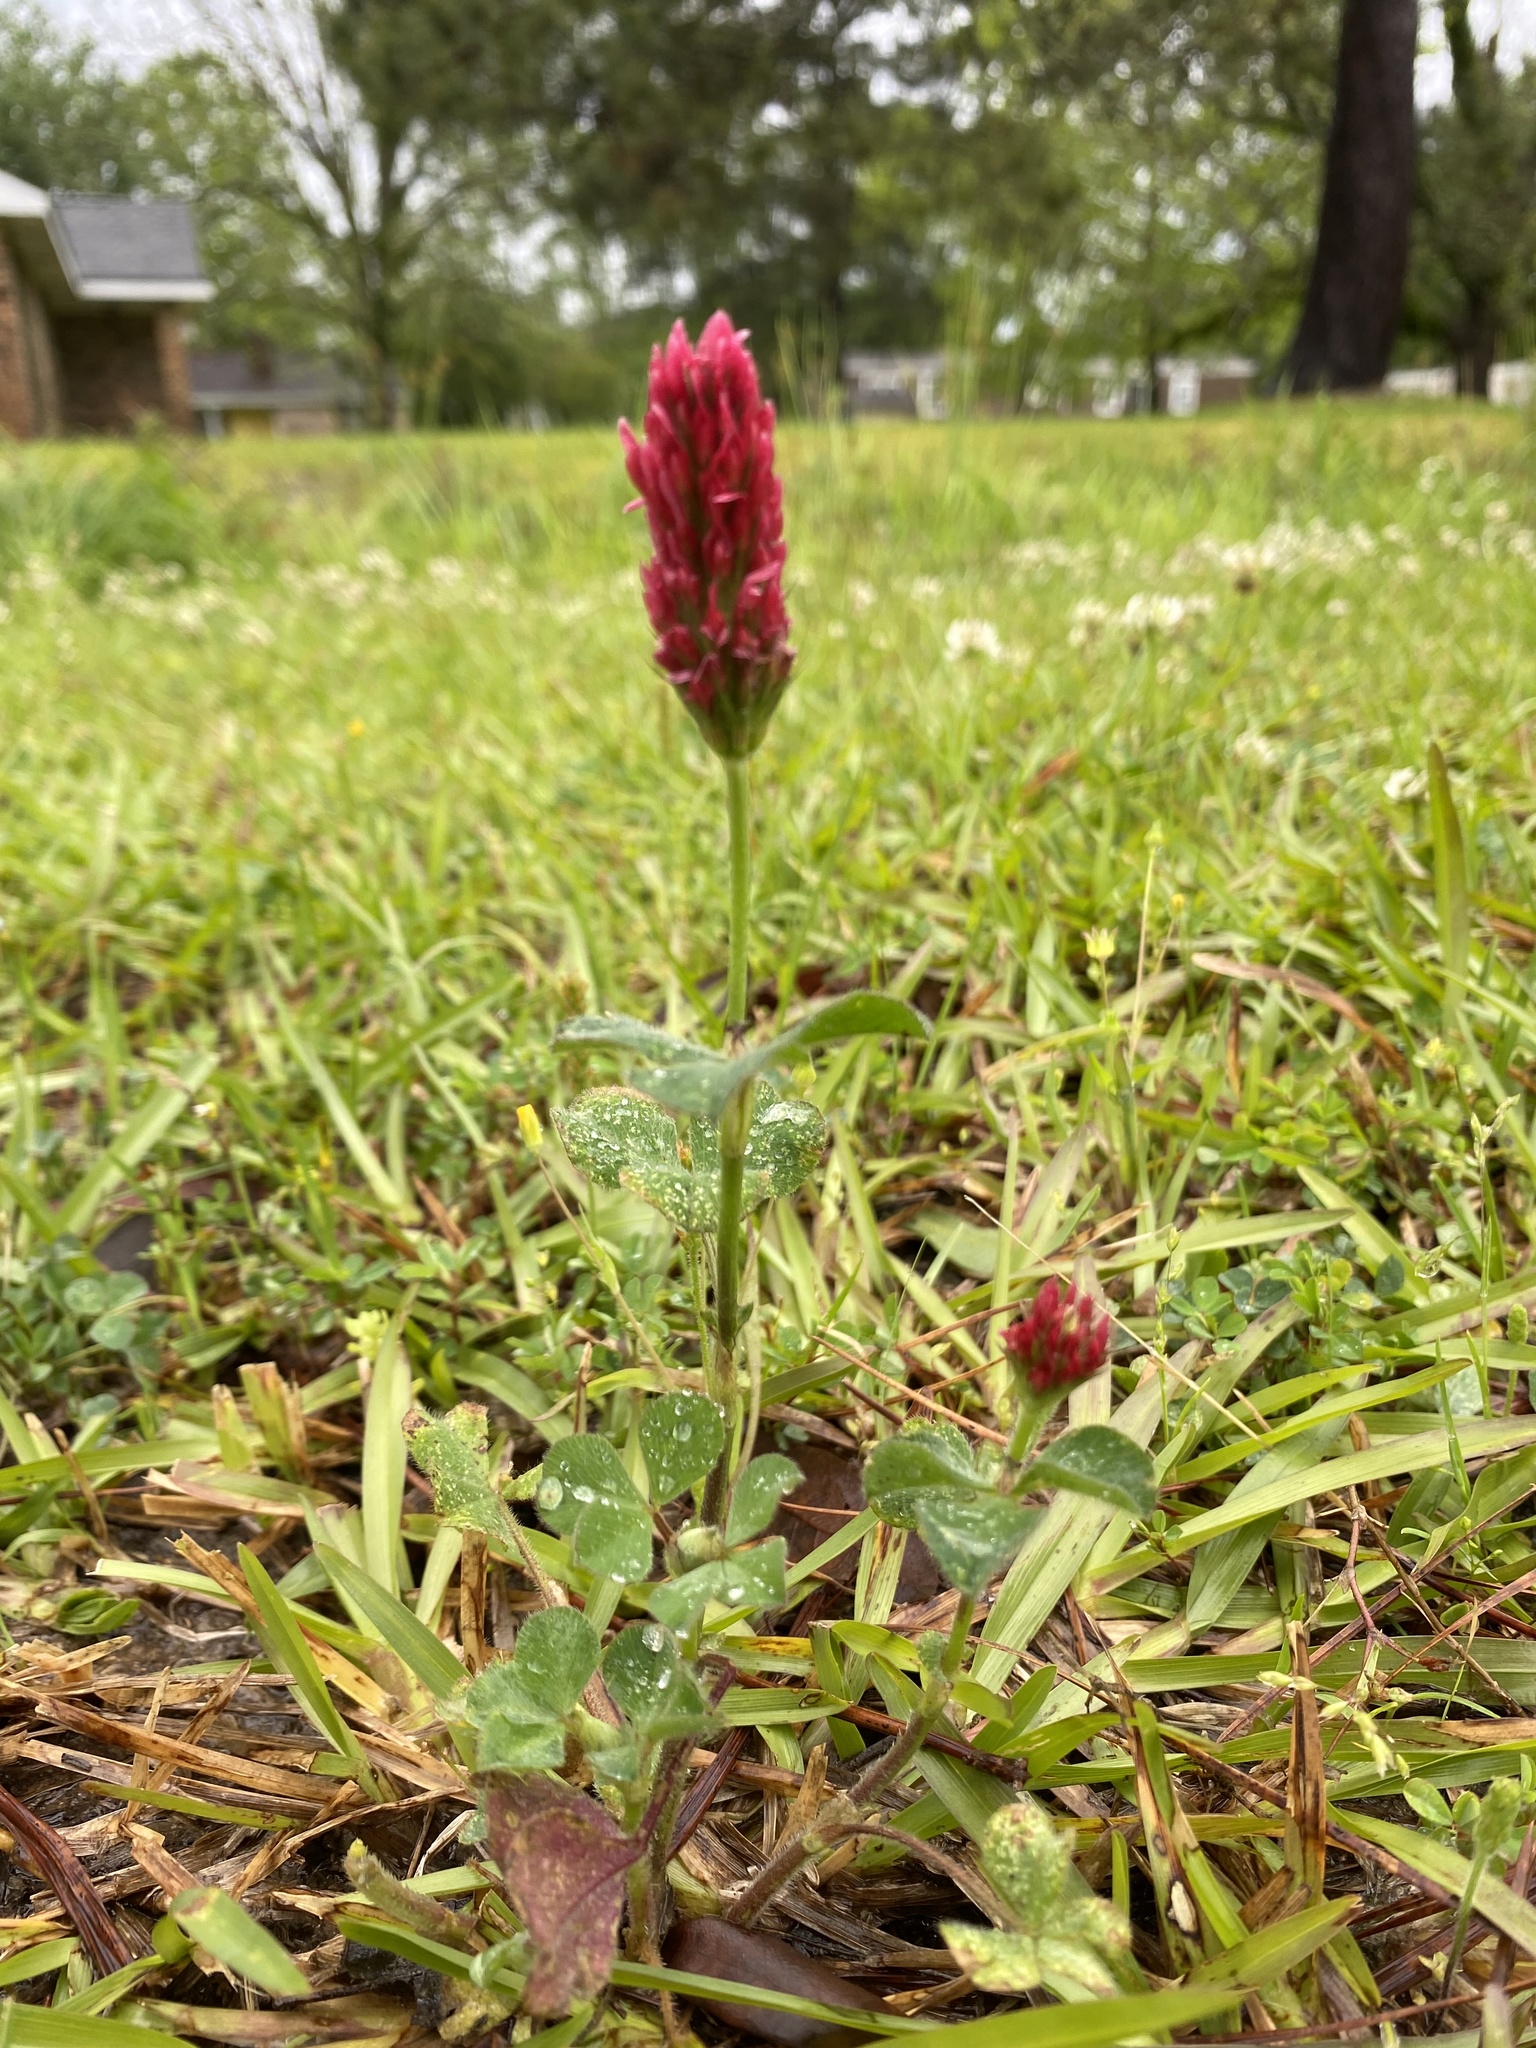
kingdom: Plantae
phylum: Tracheophyta
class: Magnoliopsida
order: Fabales
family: Fabaceae
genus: Trifolium
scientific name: Trifolium incarnatum
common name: Crimson clover
